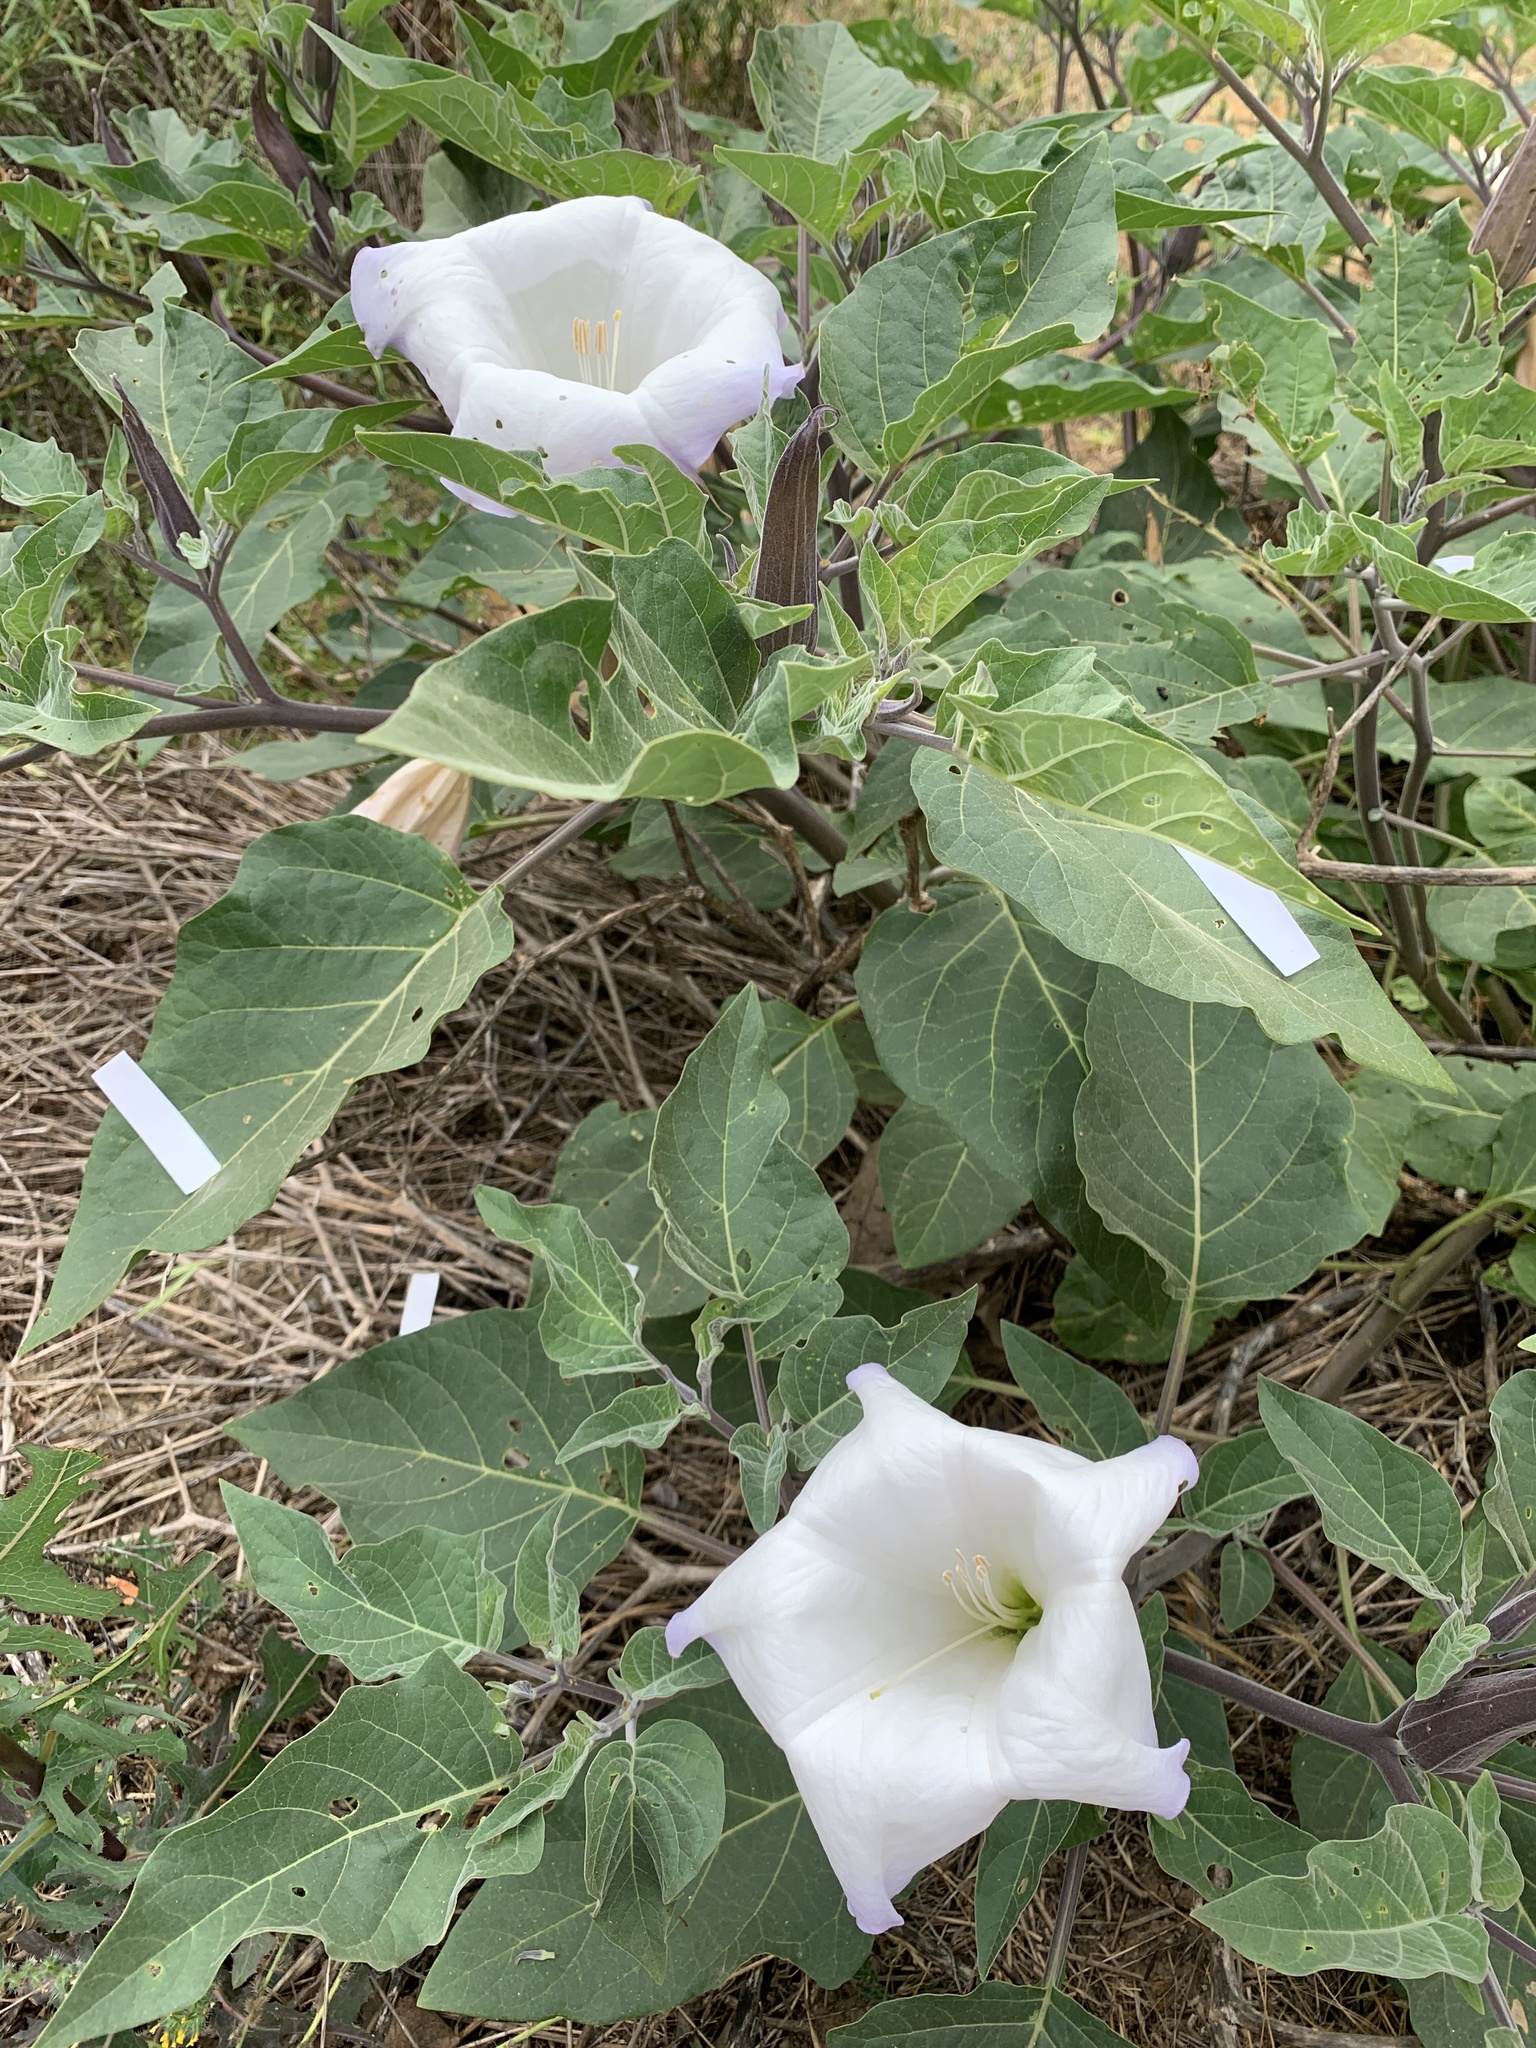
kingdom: Plantae
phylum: Tracheophyta
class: Magnoliopsida
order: Solanales
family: Solanaceae
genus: Datura
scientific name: Datura wrightii
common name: Sacred thorn-apple
